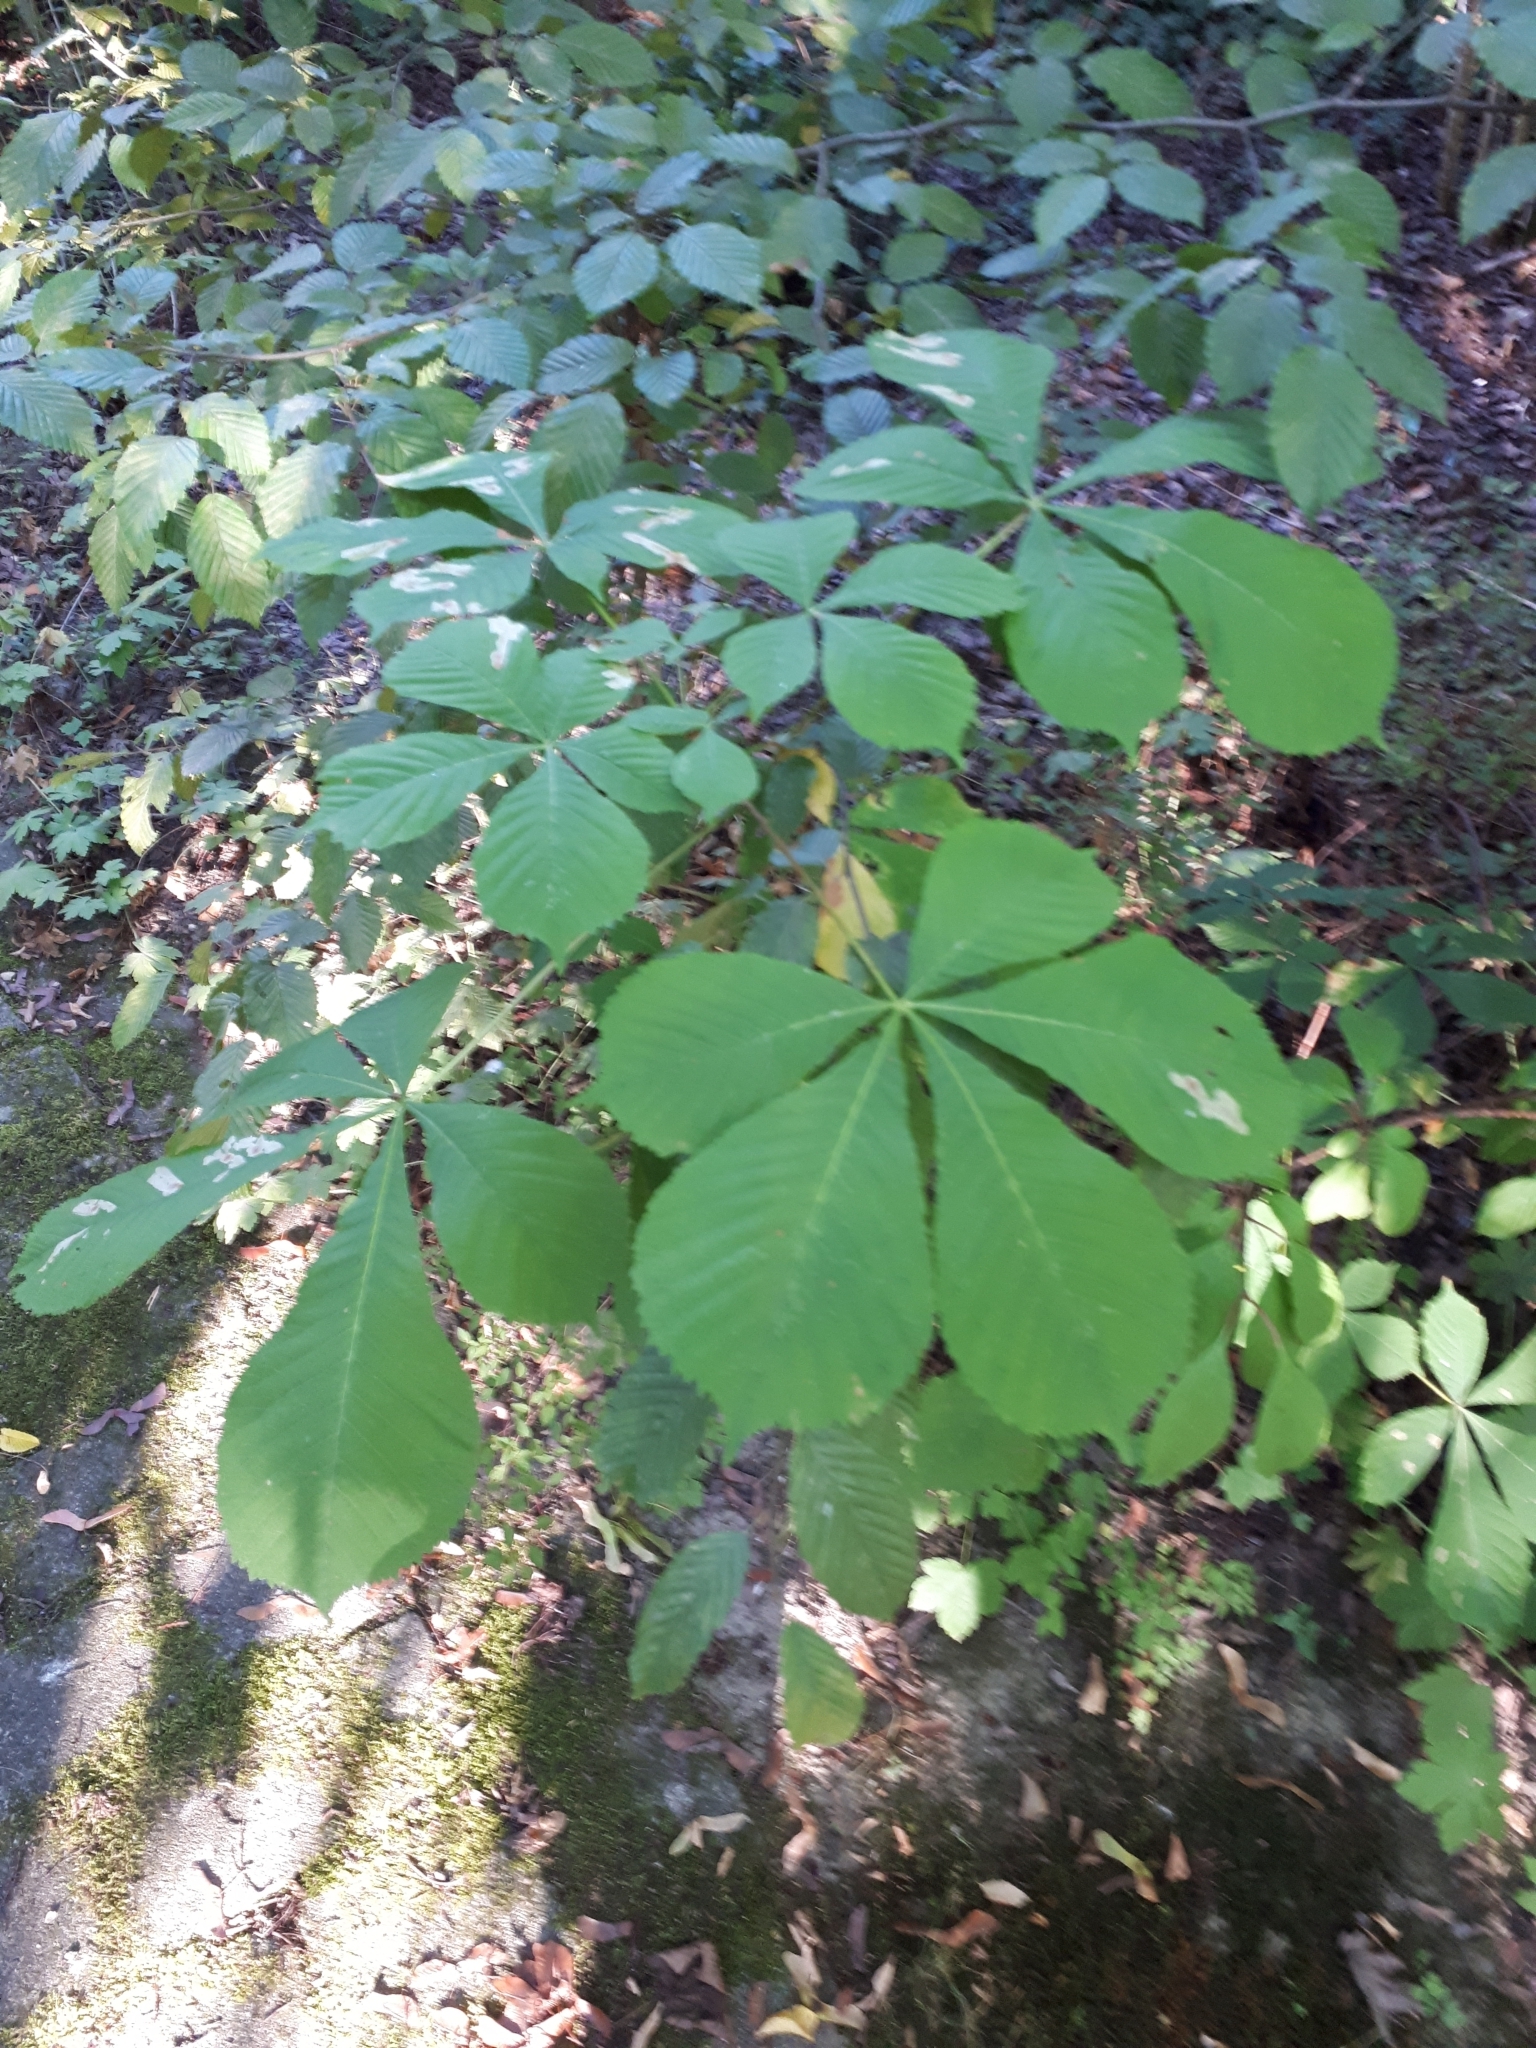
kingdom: Plantae
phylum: Tracheophyta
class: Magnoliopsida
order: Sapindales
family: Sapindaceae
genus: Aesculus
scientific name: Aesculus hippocastanum
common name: Horse-chestnut
